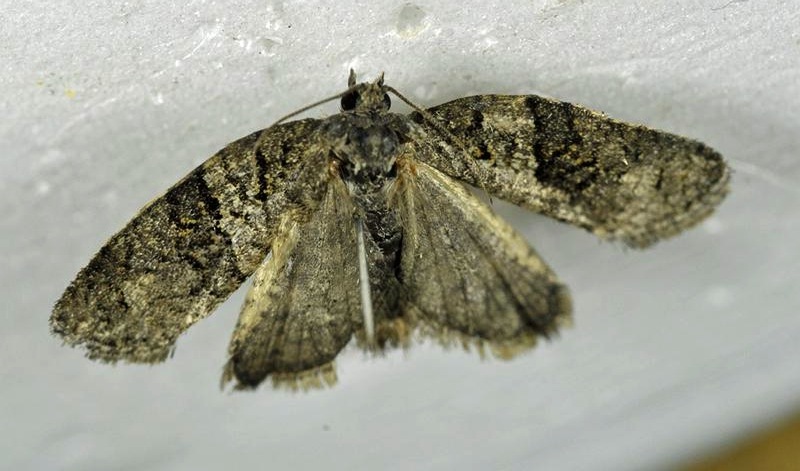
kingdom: Animalia
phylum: Arthropoda
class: Insecta
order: Lepidoptera
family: Tortricidae
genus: Syndemis
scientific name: Syndemis afflictana
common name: Gray leafroller moth
